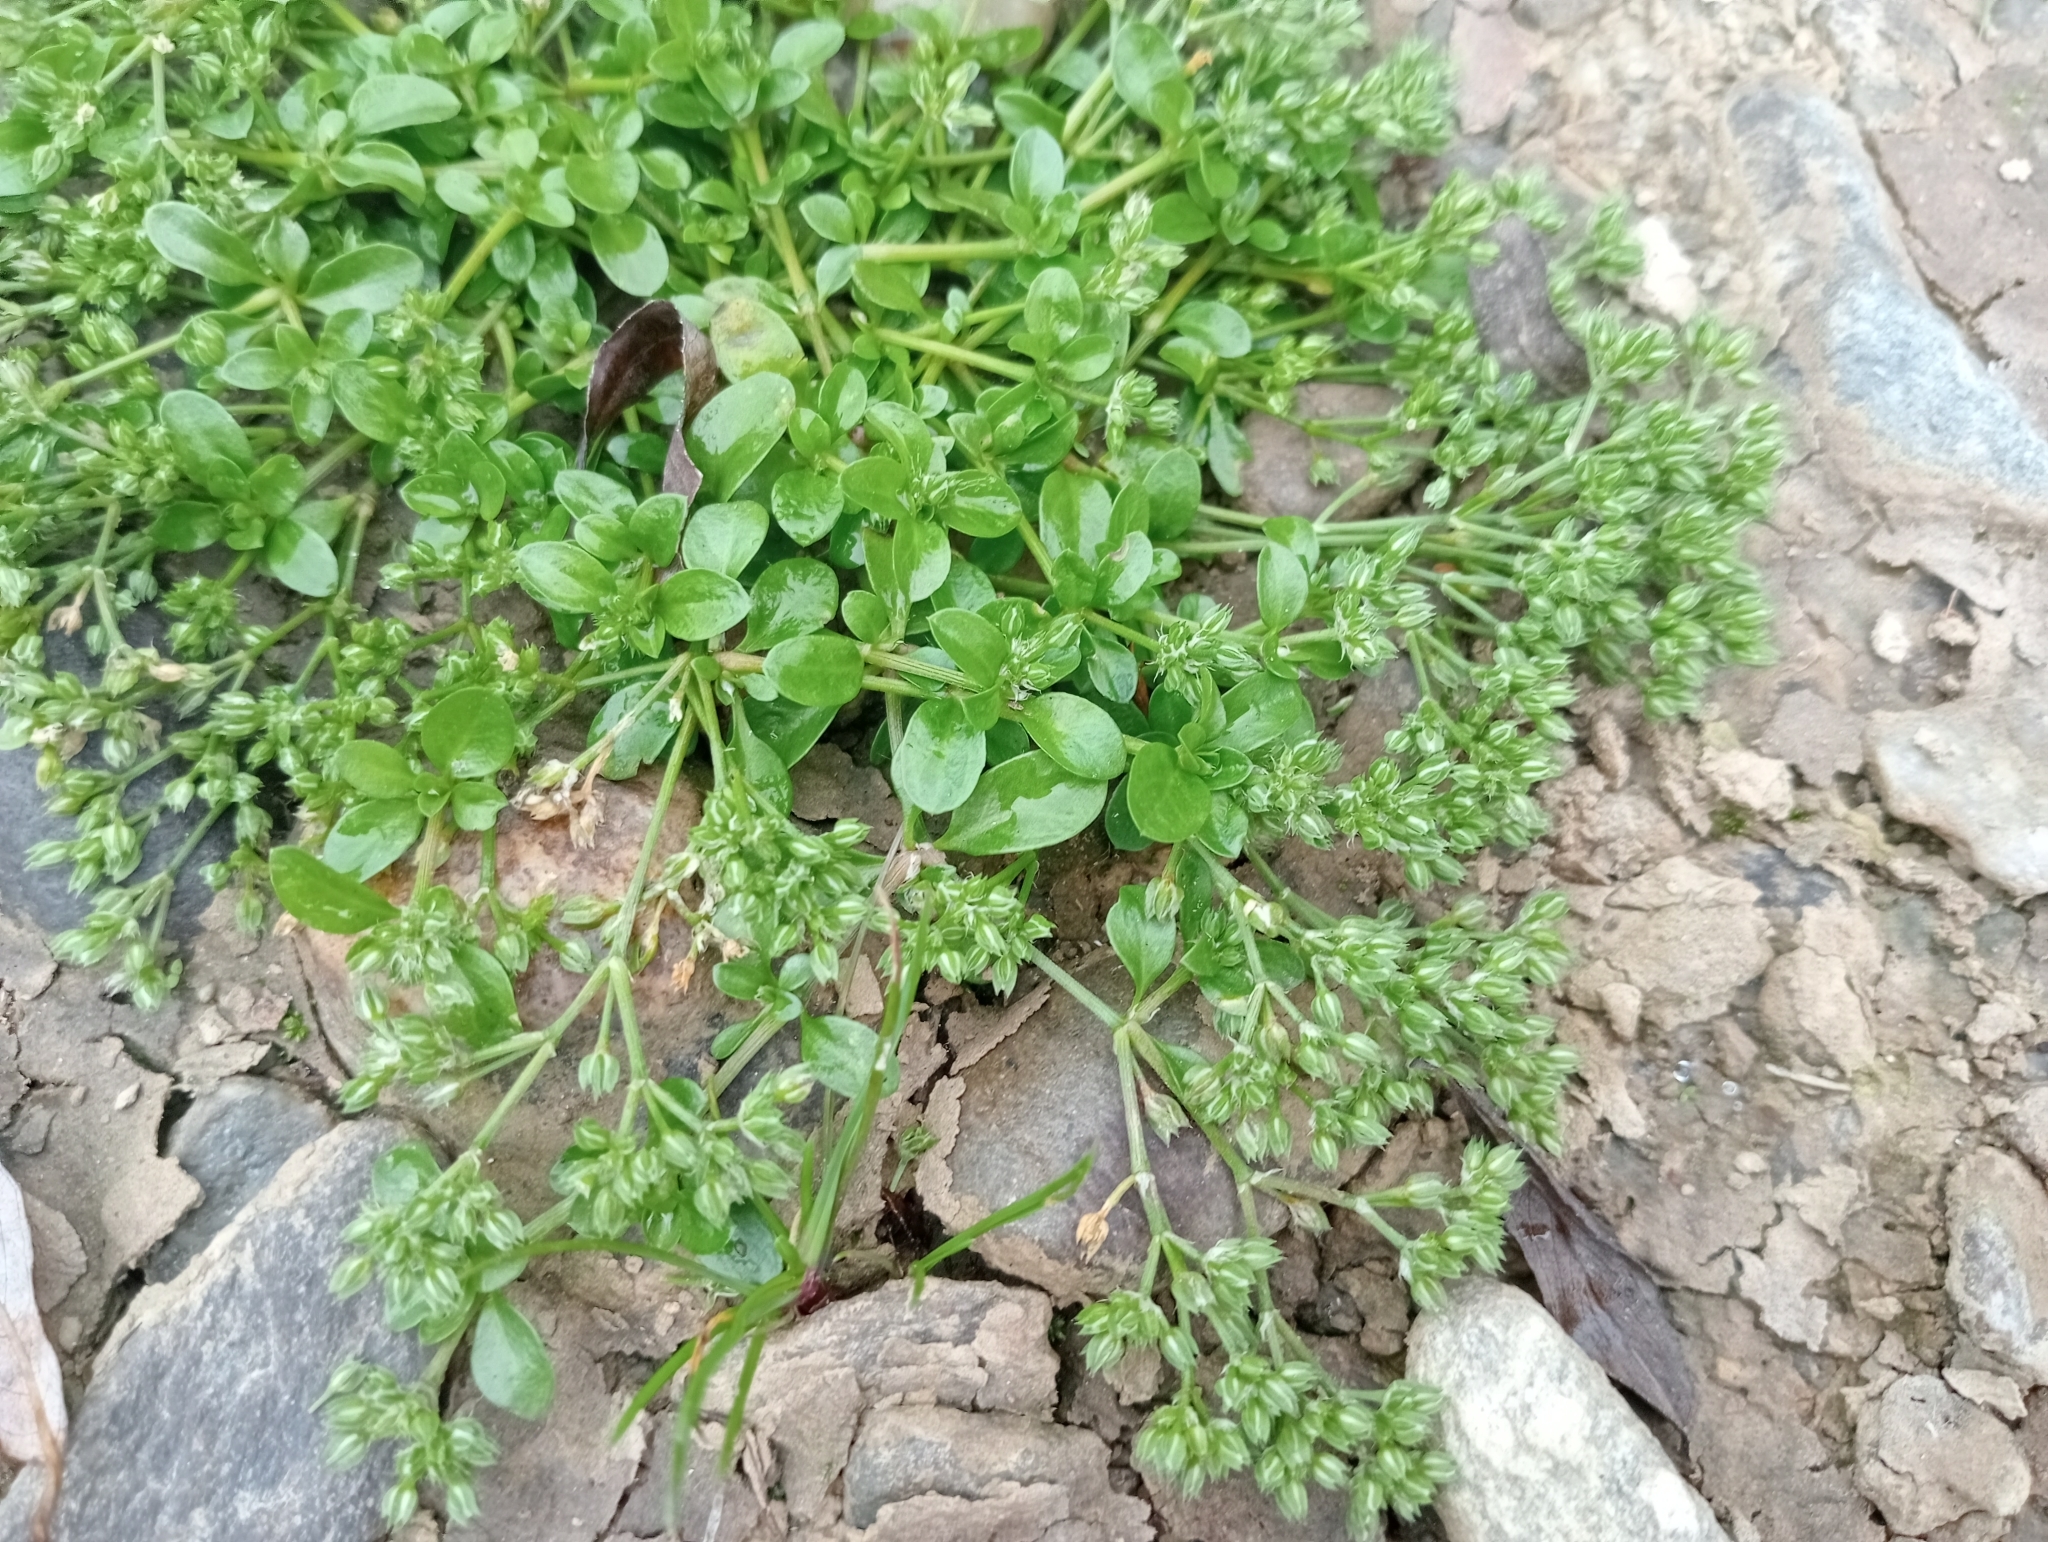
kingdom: Plantae
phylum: Tracheophyta
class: Magnoliopsida
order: Caryophyllales
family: Caryophyllaceae
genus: Polycarpon
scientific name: Polycarpon tetraphyllum
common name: Four-leaved all-seed
